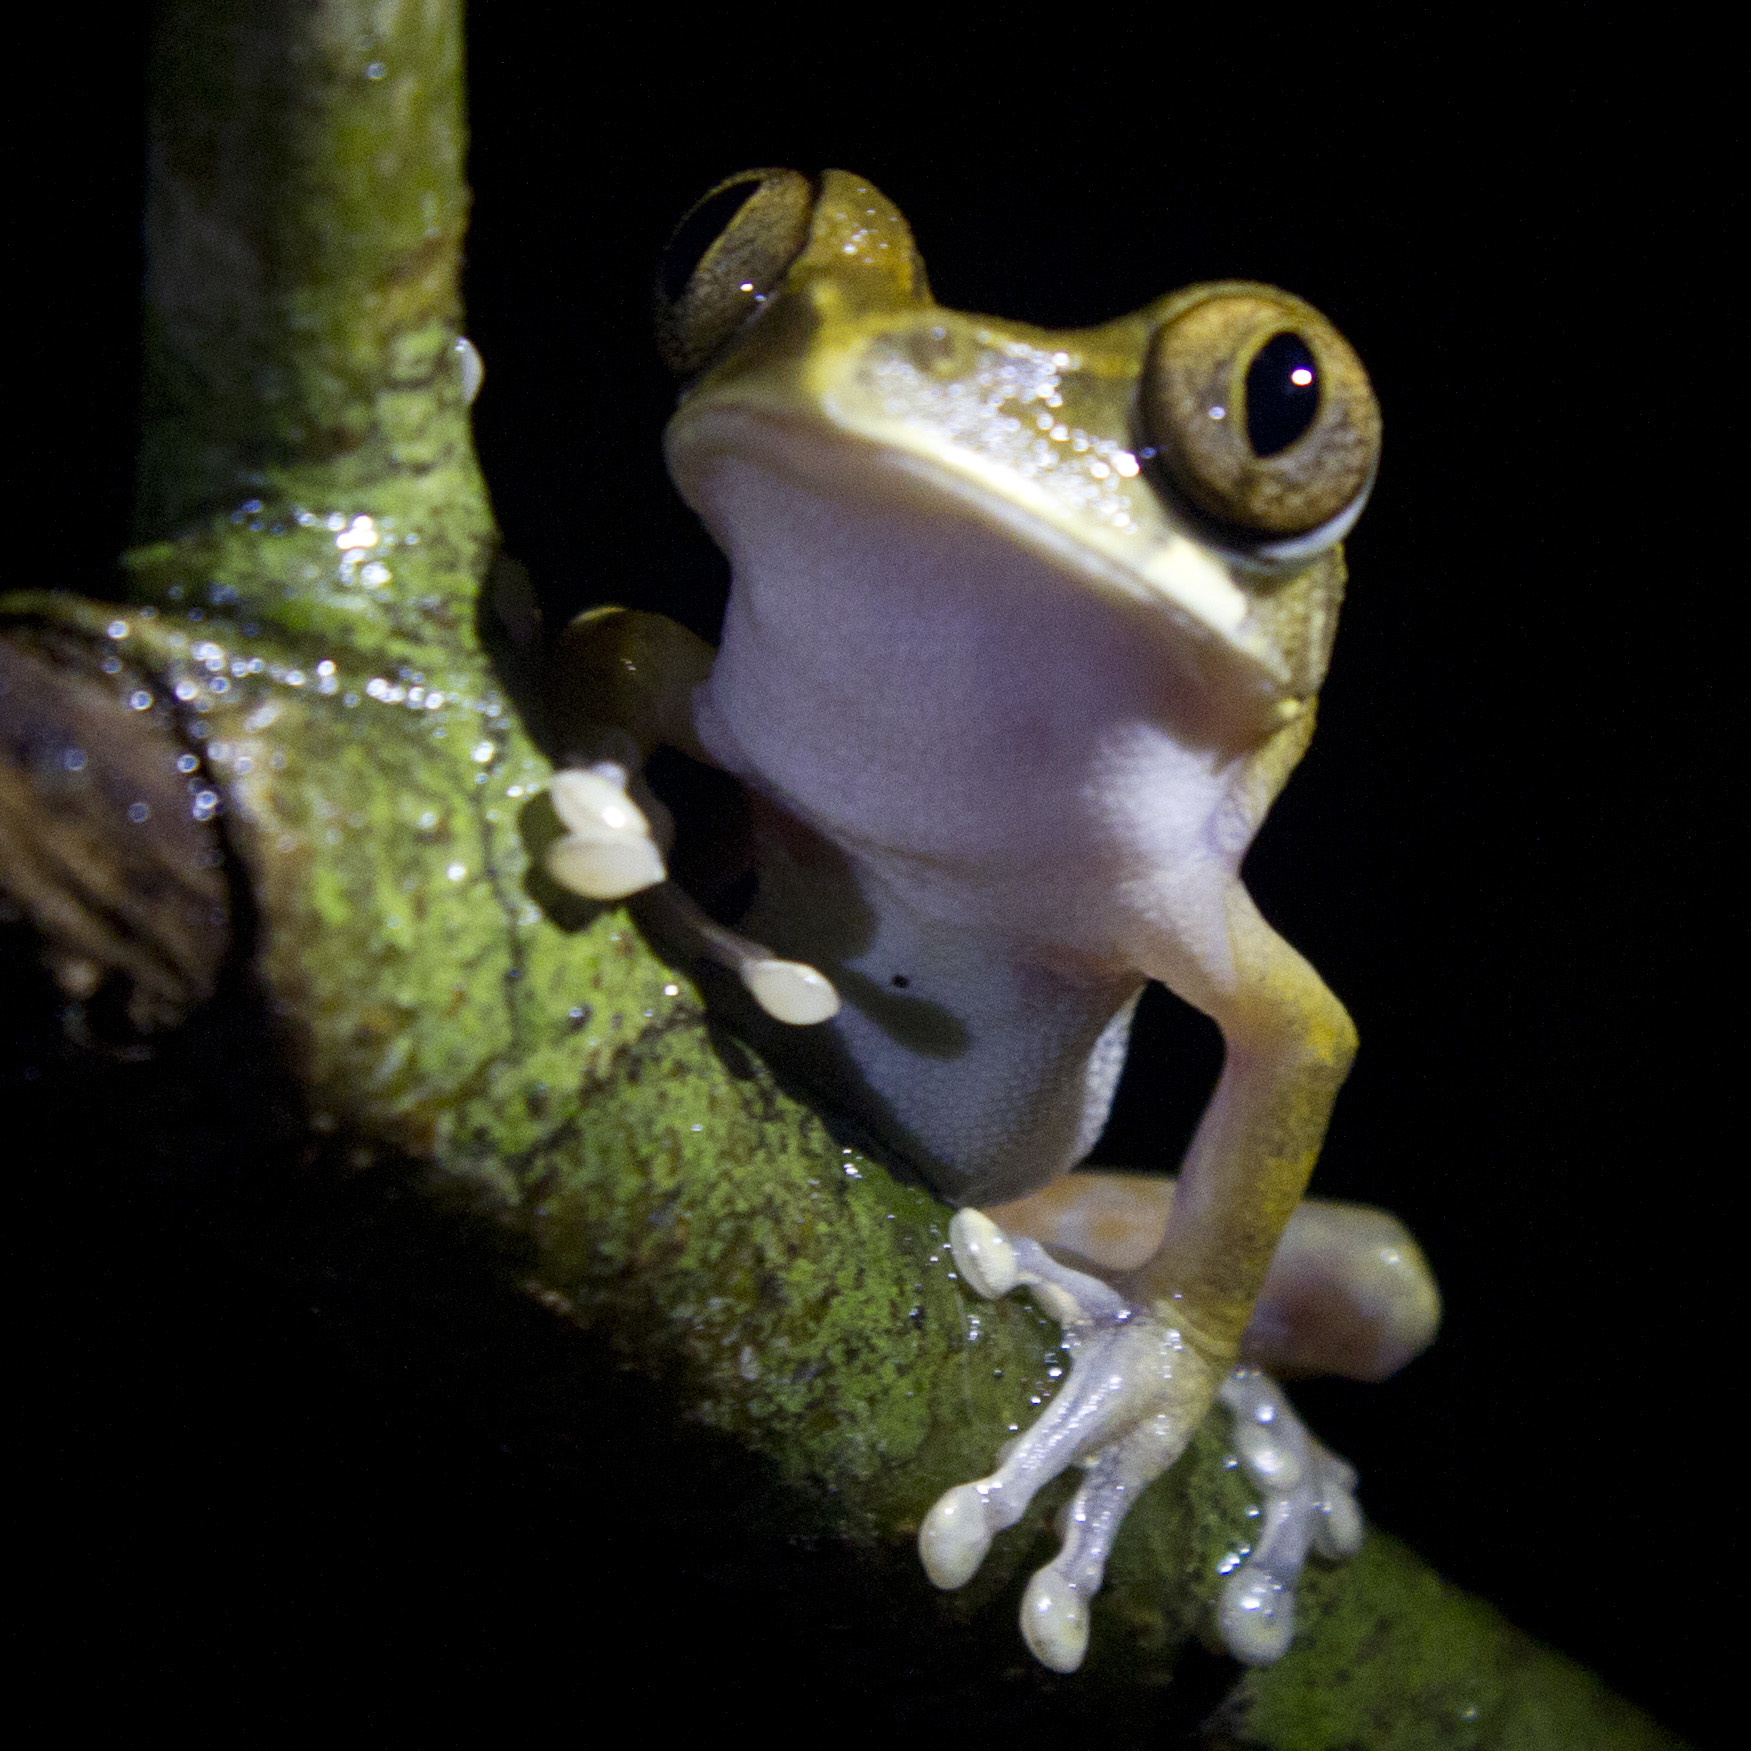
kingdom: Animalia
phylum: Chordata
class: Amphibia
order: Anura
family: Arthroleptidae
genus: Leptopelis
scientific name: Leptopelis rufus
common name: Red treefrog
